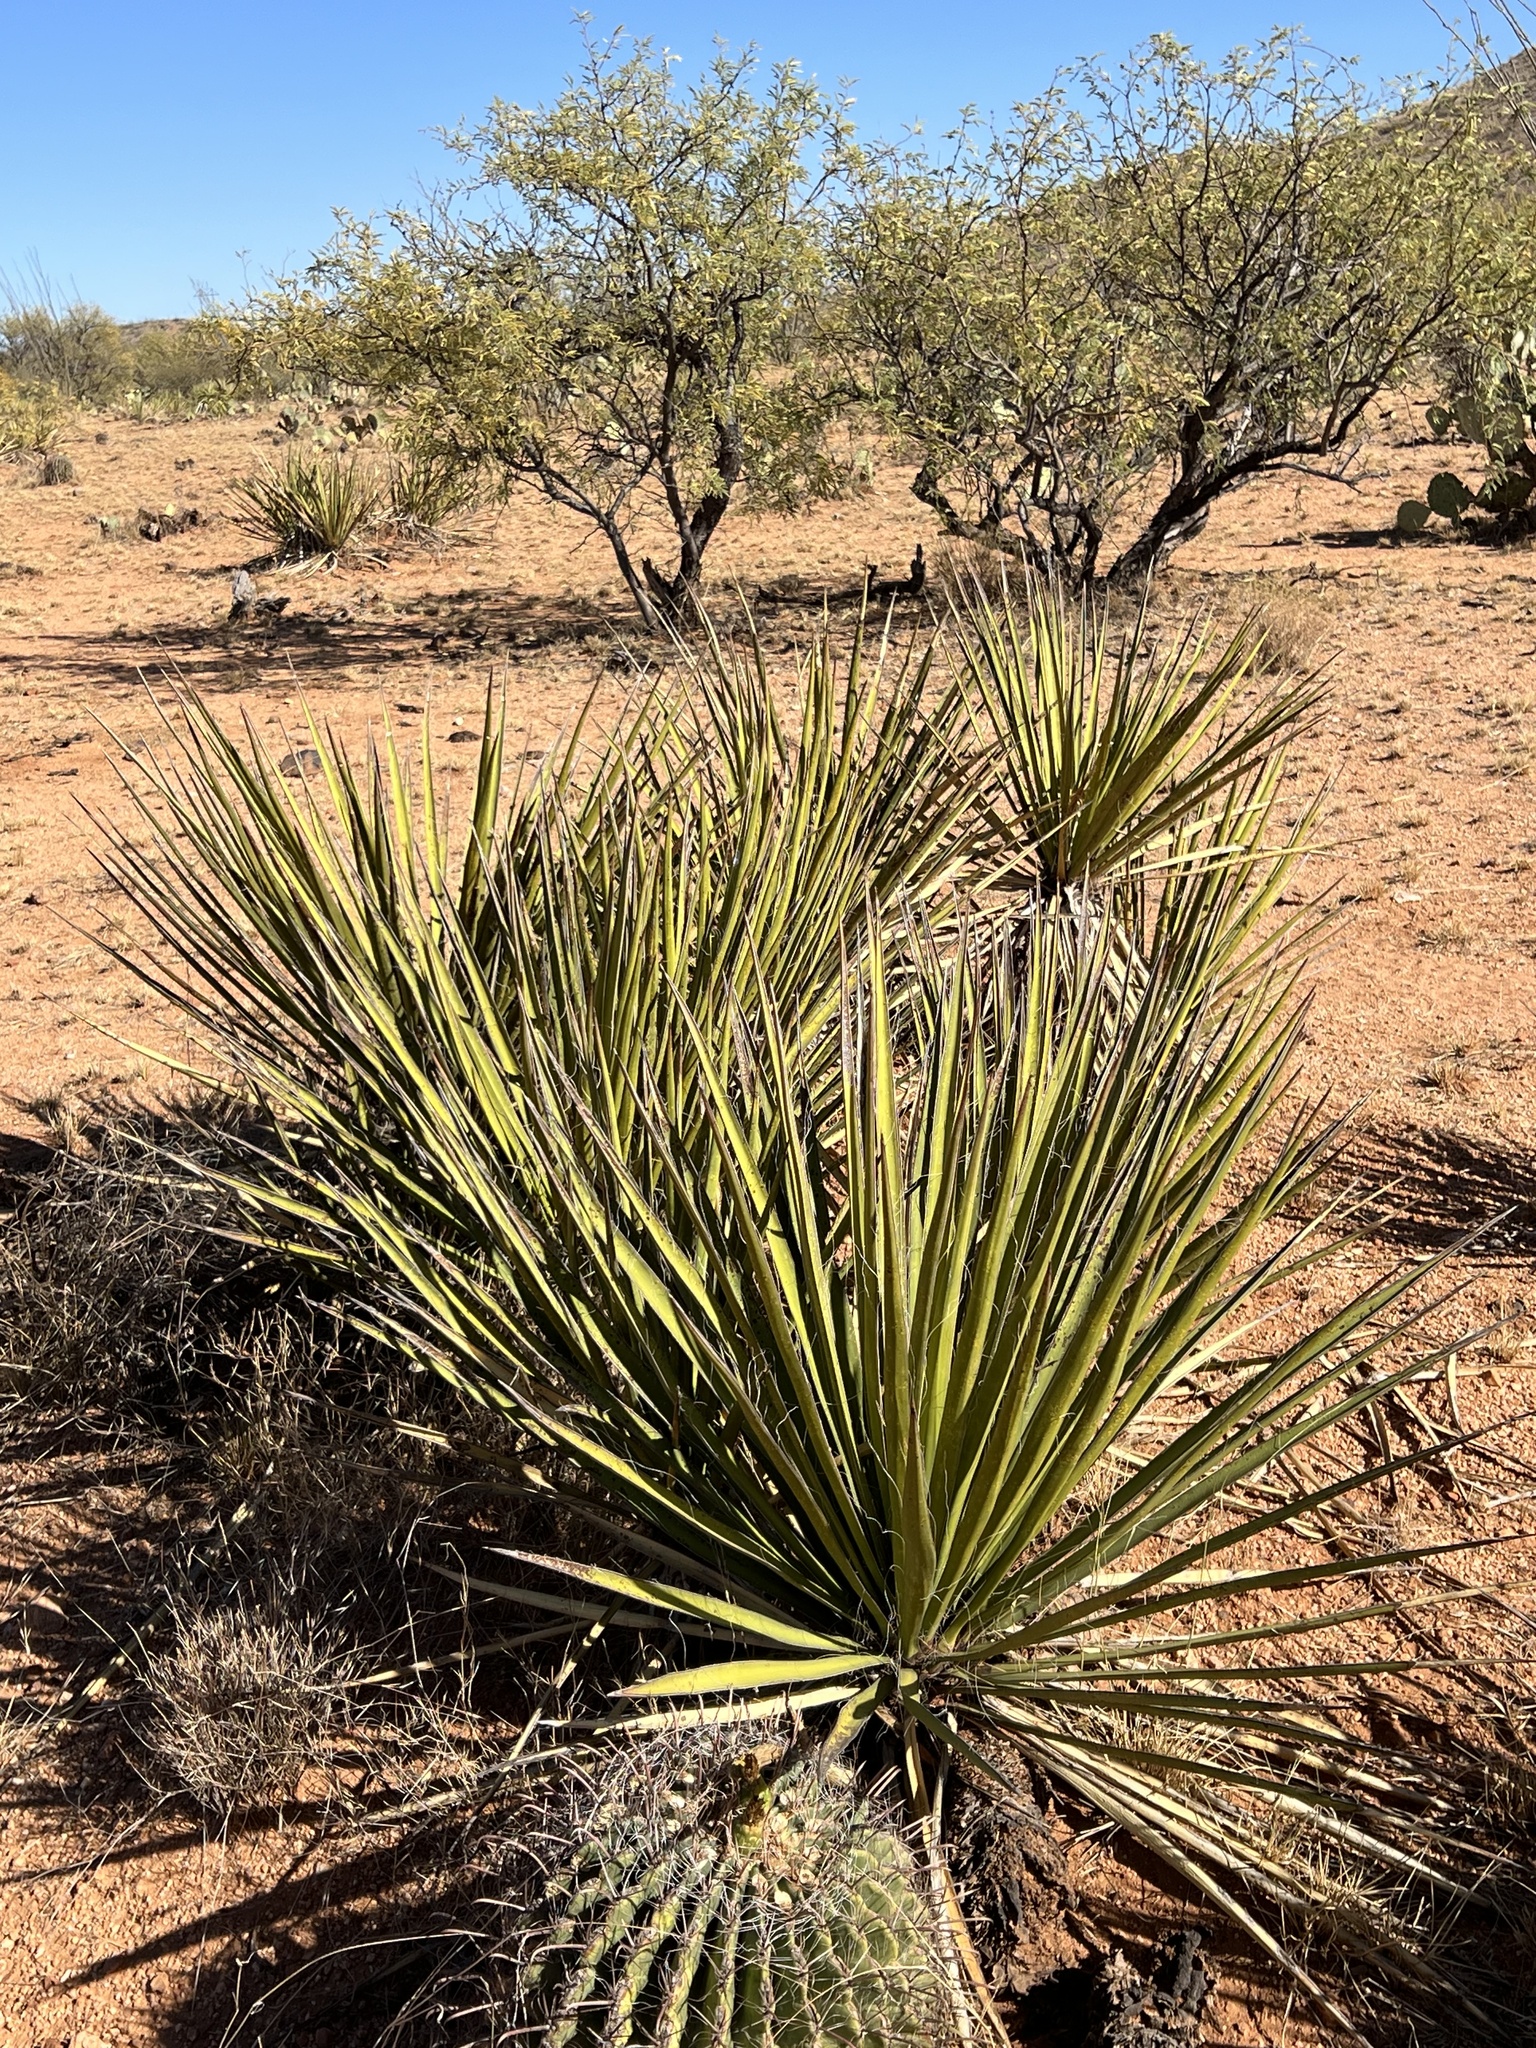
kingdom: Plantae
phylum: Tracheophyta
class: Liliopsida
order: Asparagales
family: Asparagaceae
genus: Yucca
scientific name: Yucca baccata
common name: Banana yucca
